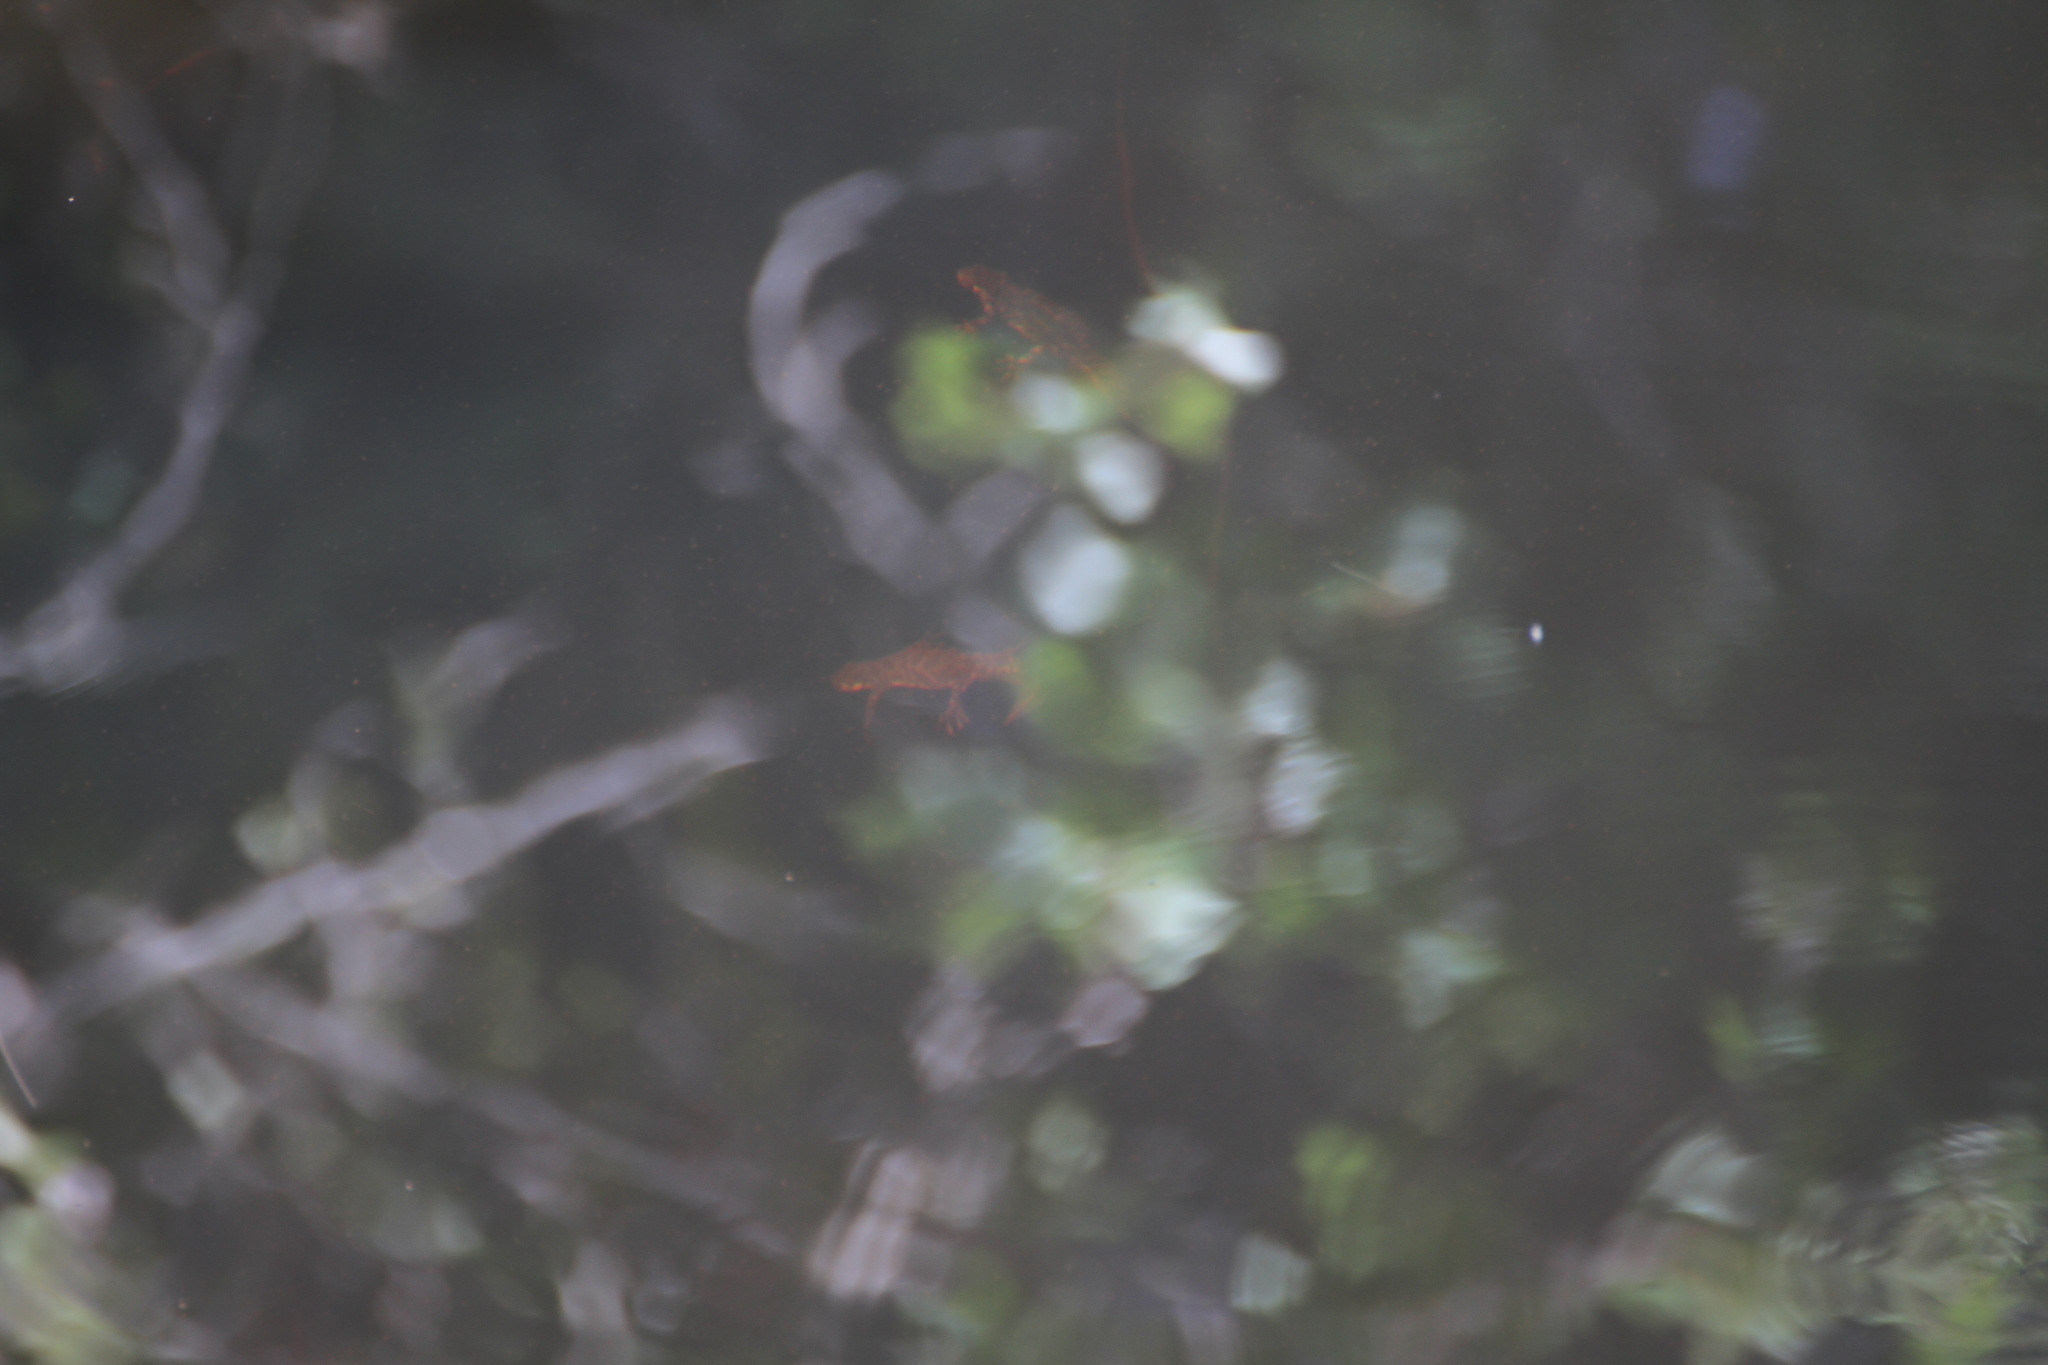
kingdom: Animalia
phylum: Chordata
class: Amphibia
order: Caudata
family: Salamandridae
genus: Triturus
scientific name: Triturus marmoratus
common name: Marbled newt
